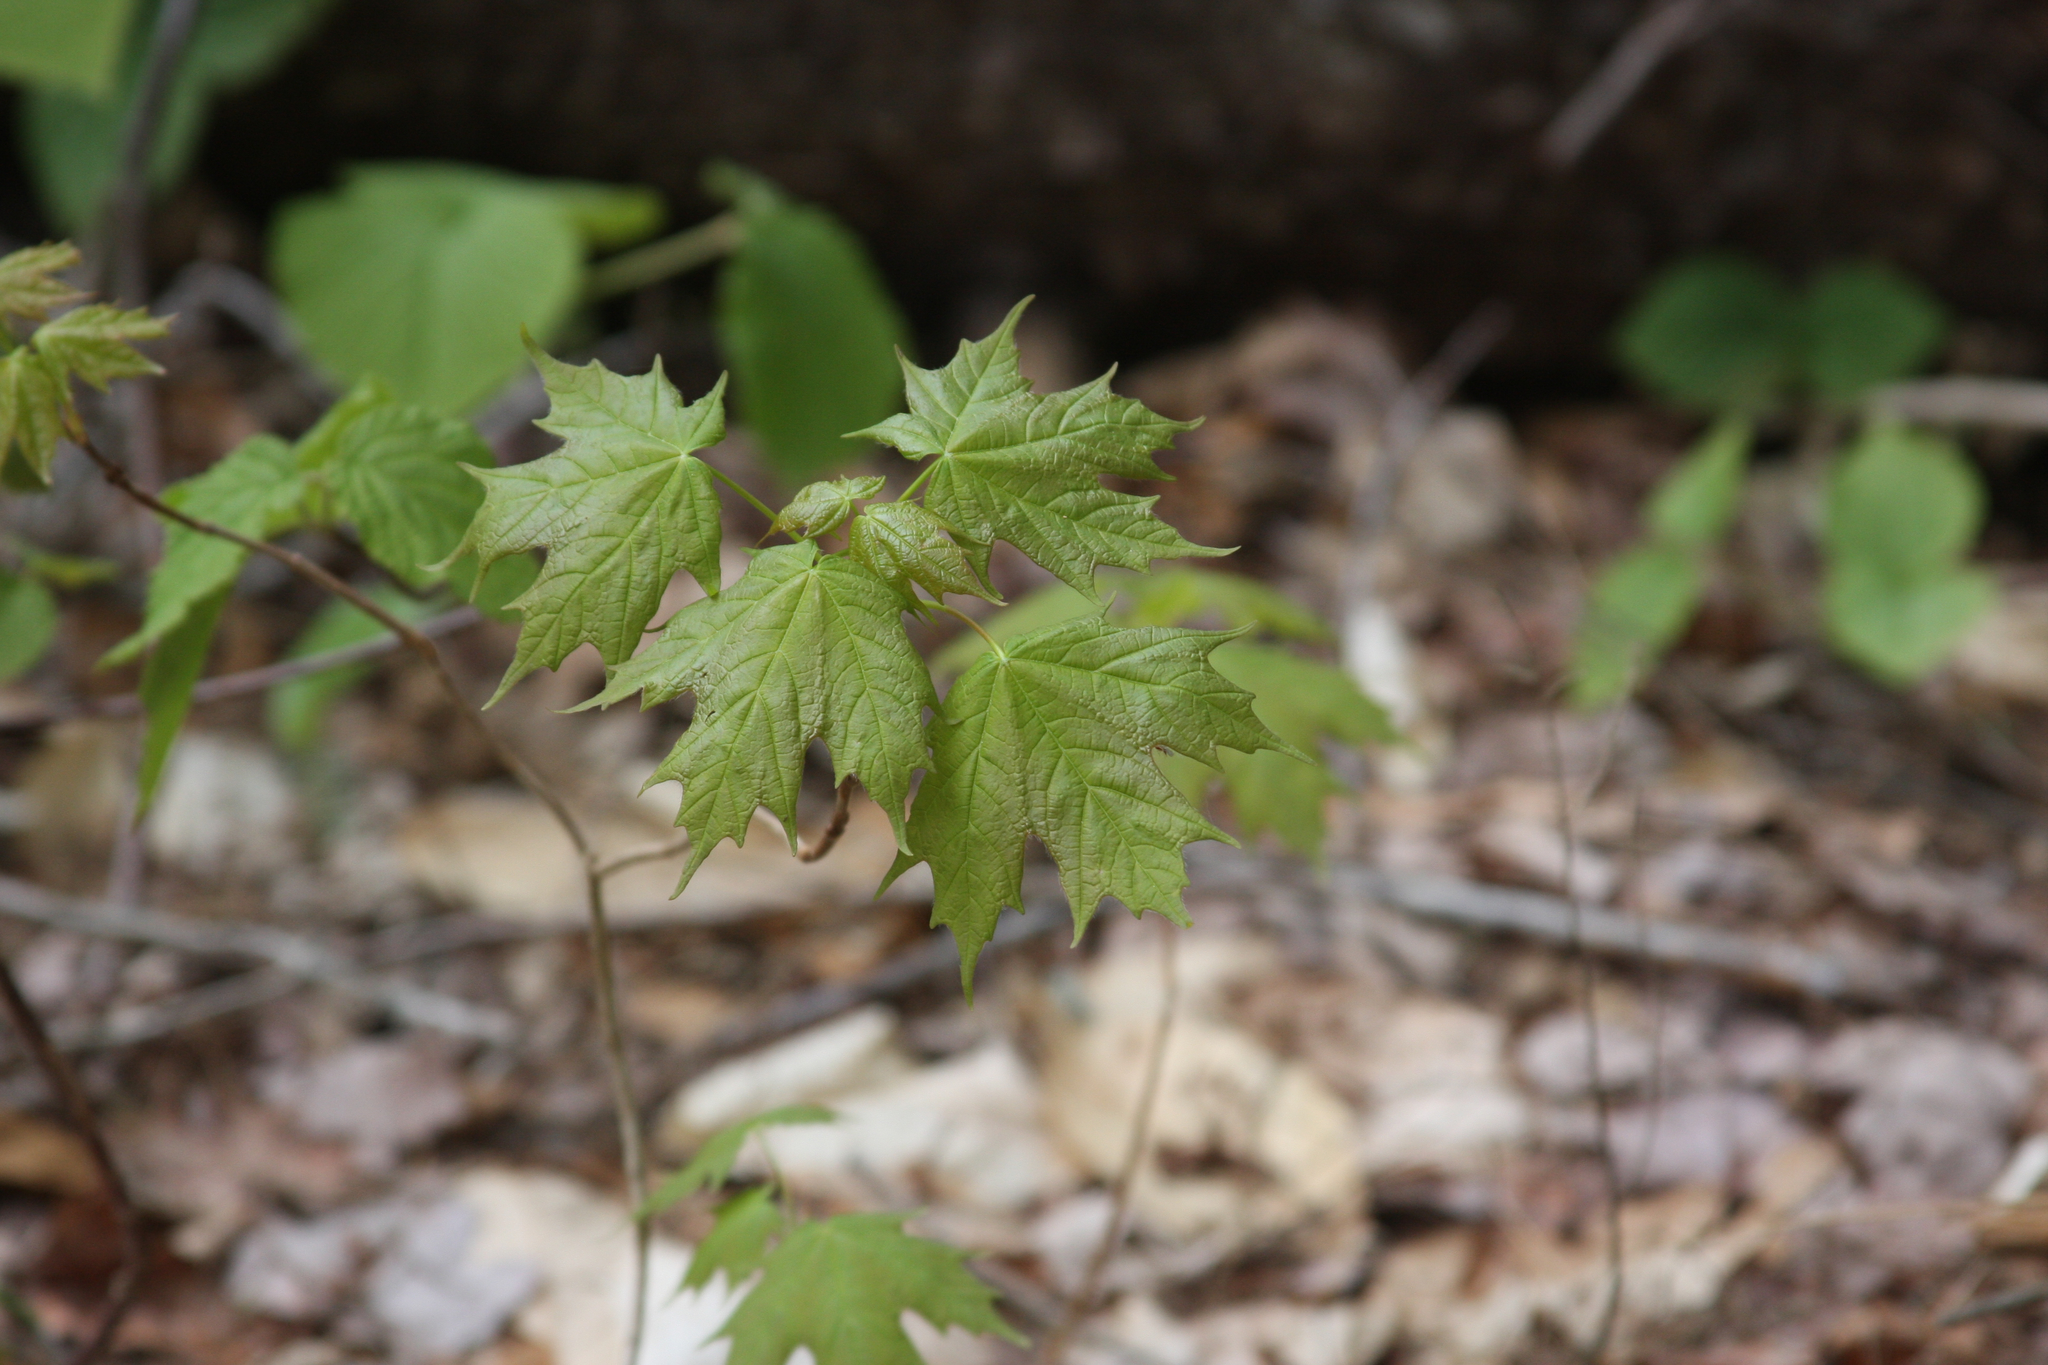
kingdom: Plantae
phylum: Tracheophyta
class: Magnoliopsida
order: Sapindales
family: Sapindaceae
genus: Acer
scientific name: Acer saccharum
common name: Sugar maple
